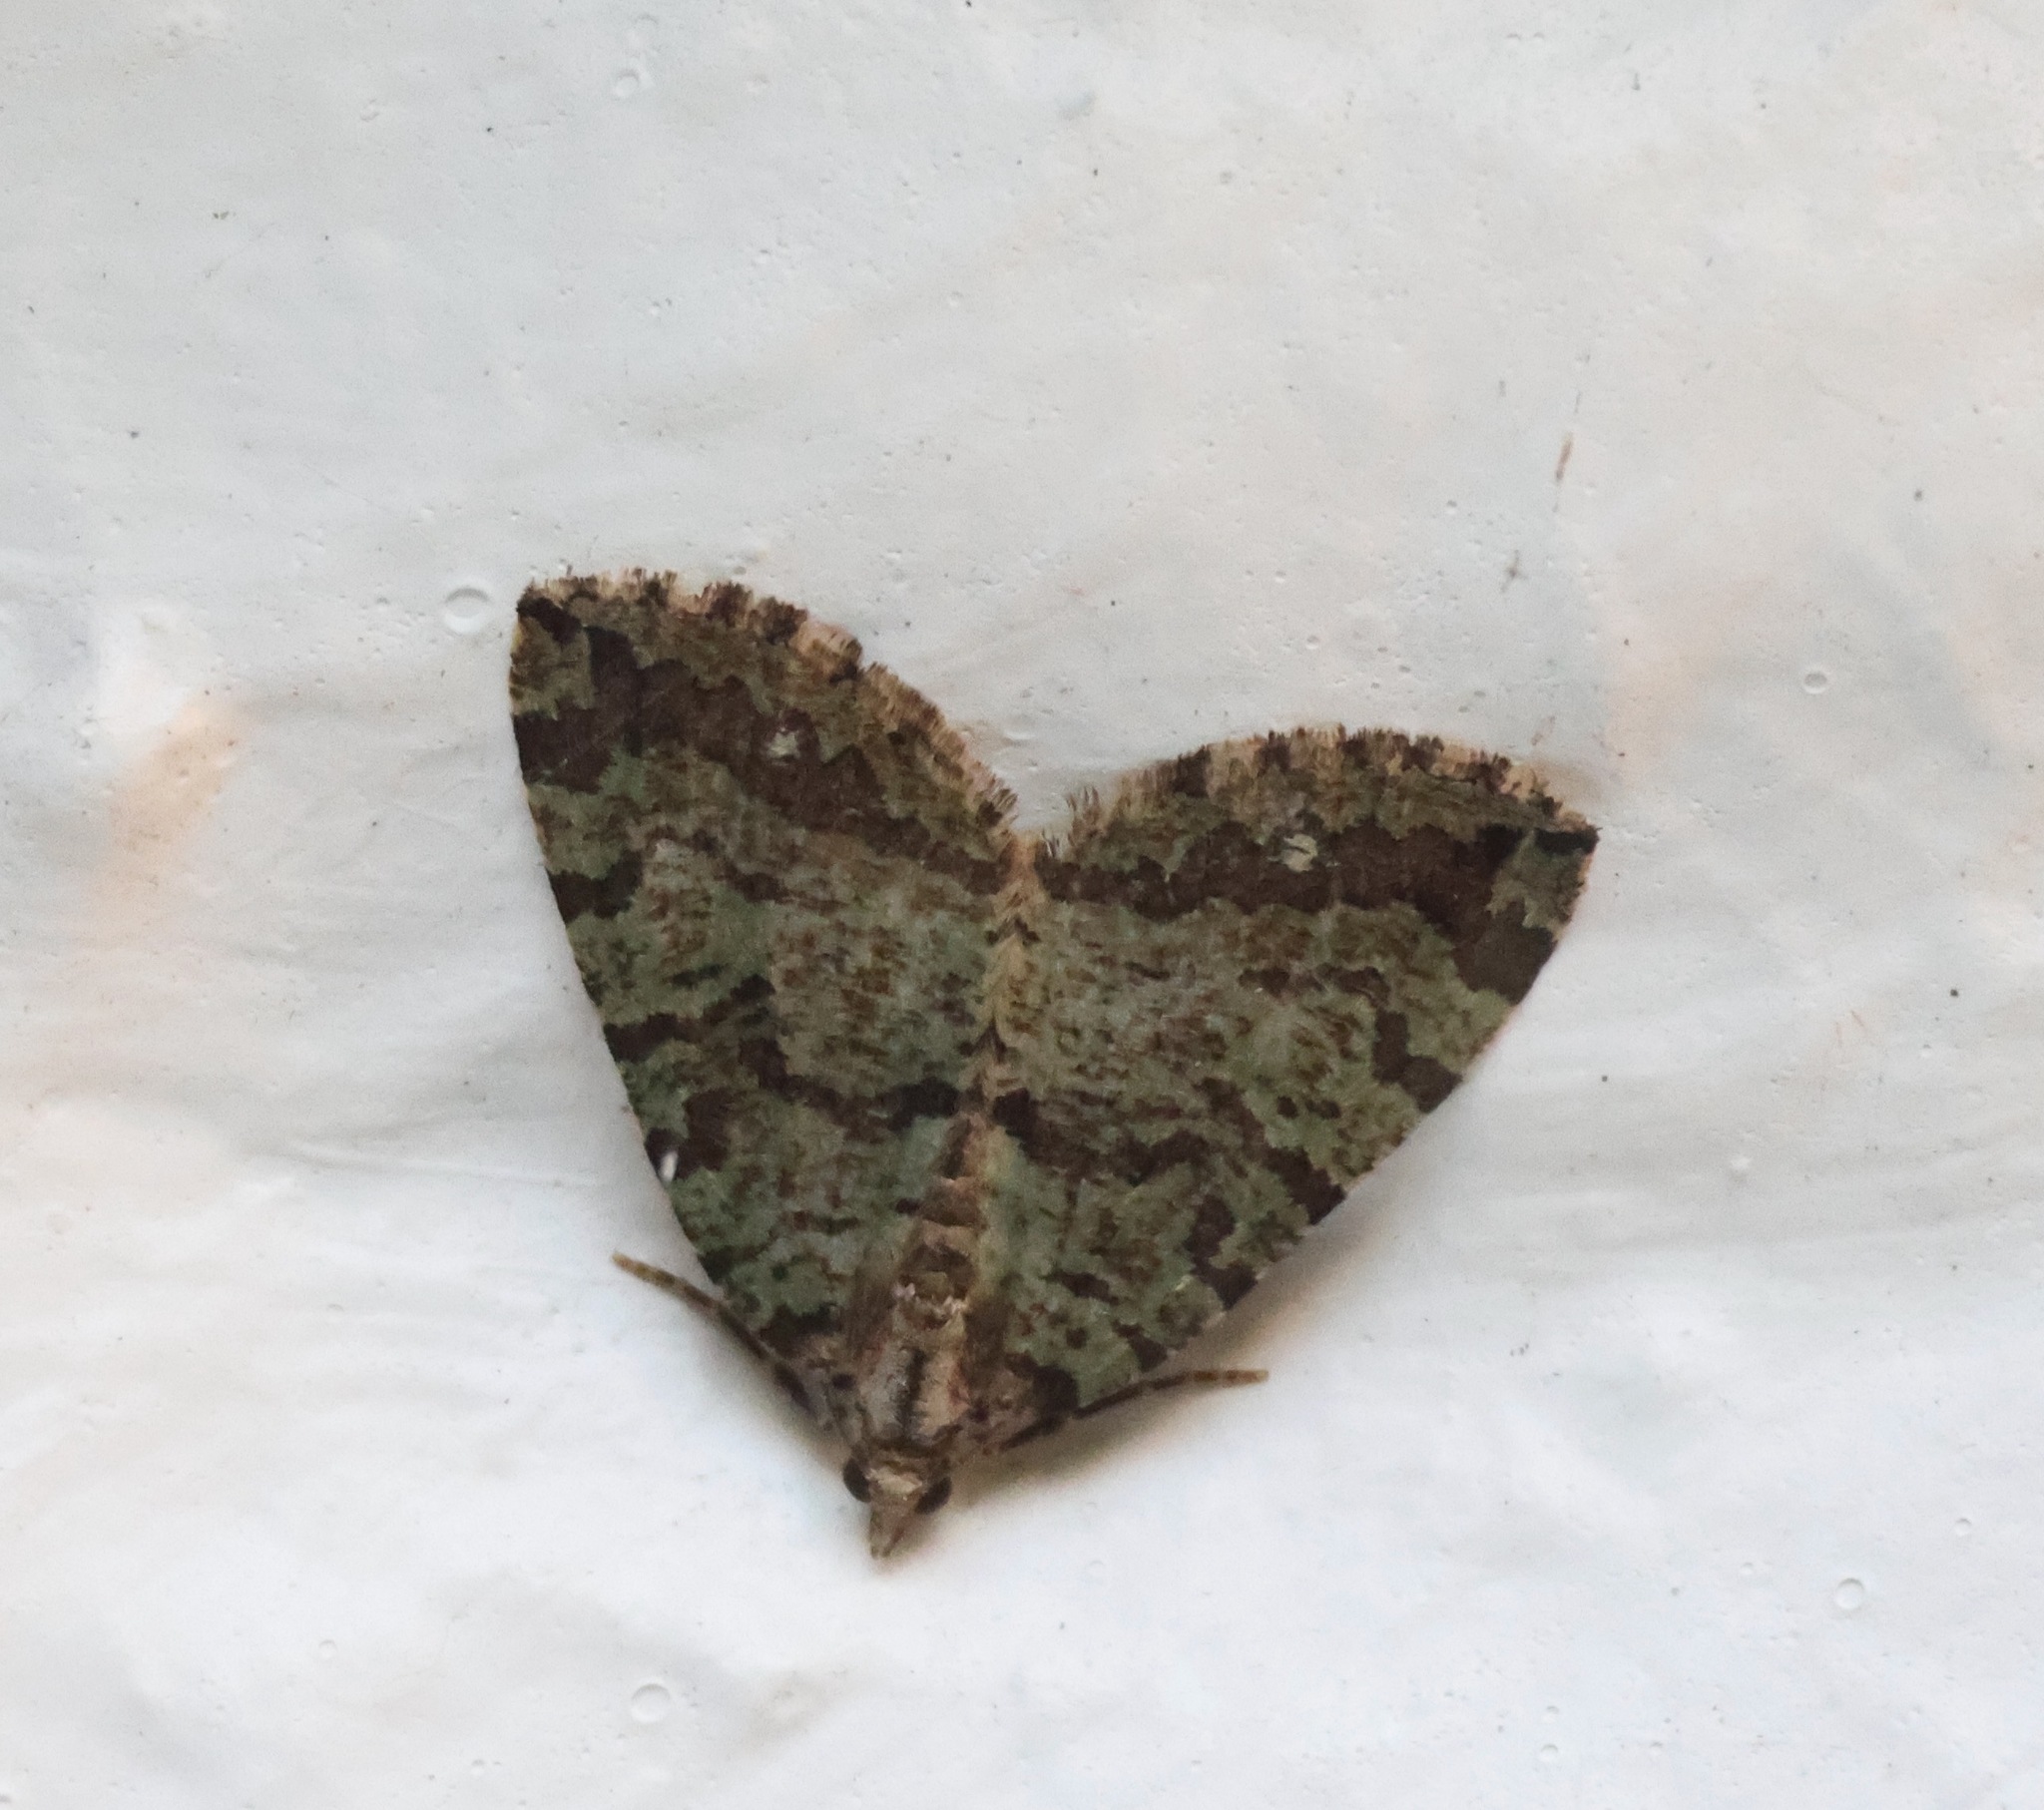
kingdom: Animalia
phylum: Arthropoda
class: Insecta
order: Lepidoptera
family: Geometridae
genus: Hydriomena
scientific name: Hydriomena furcata
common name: July highflyer
